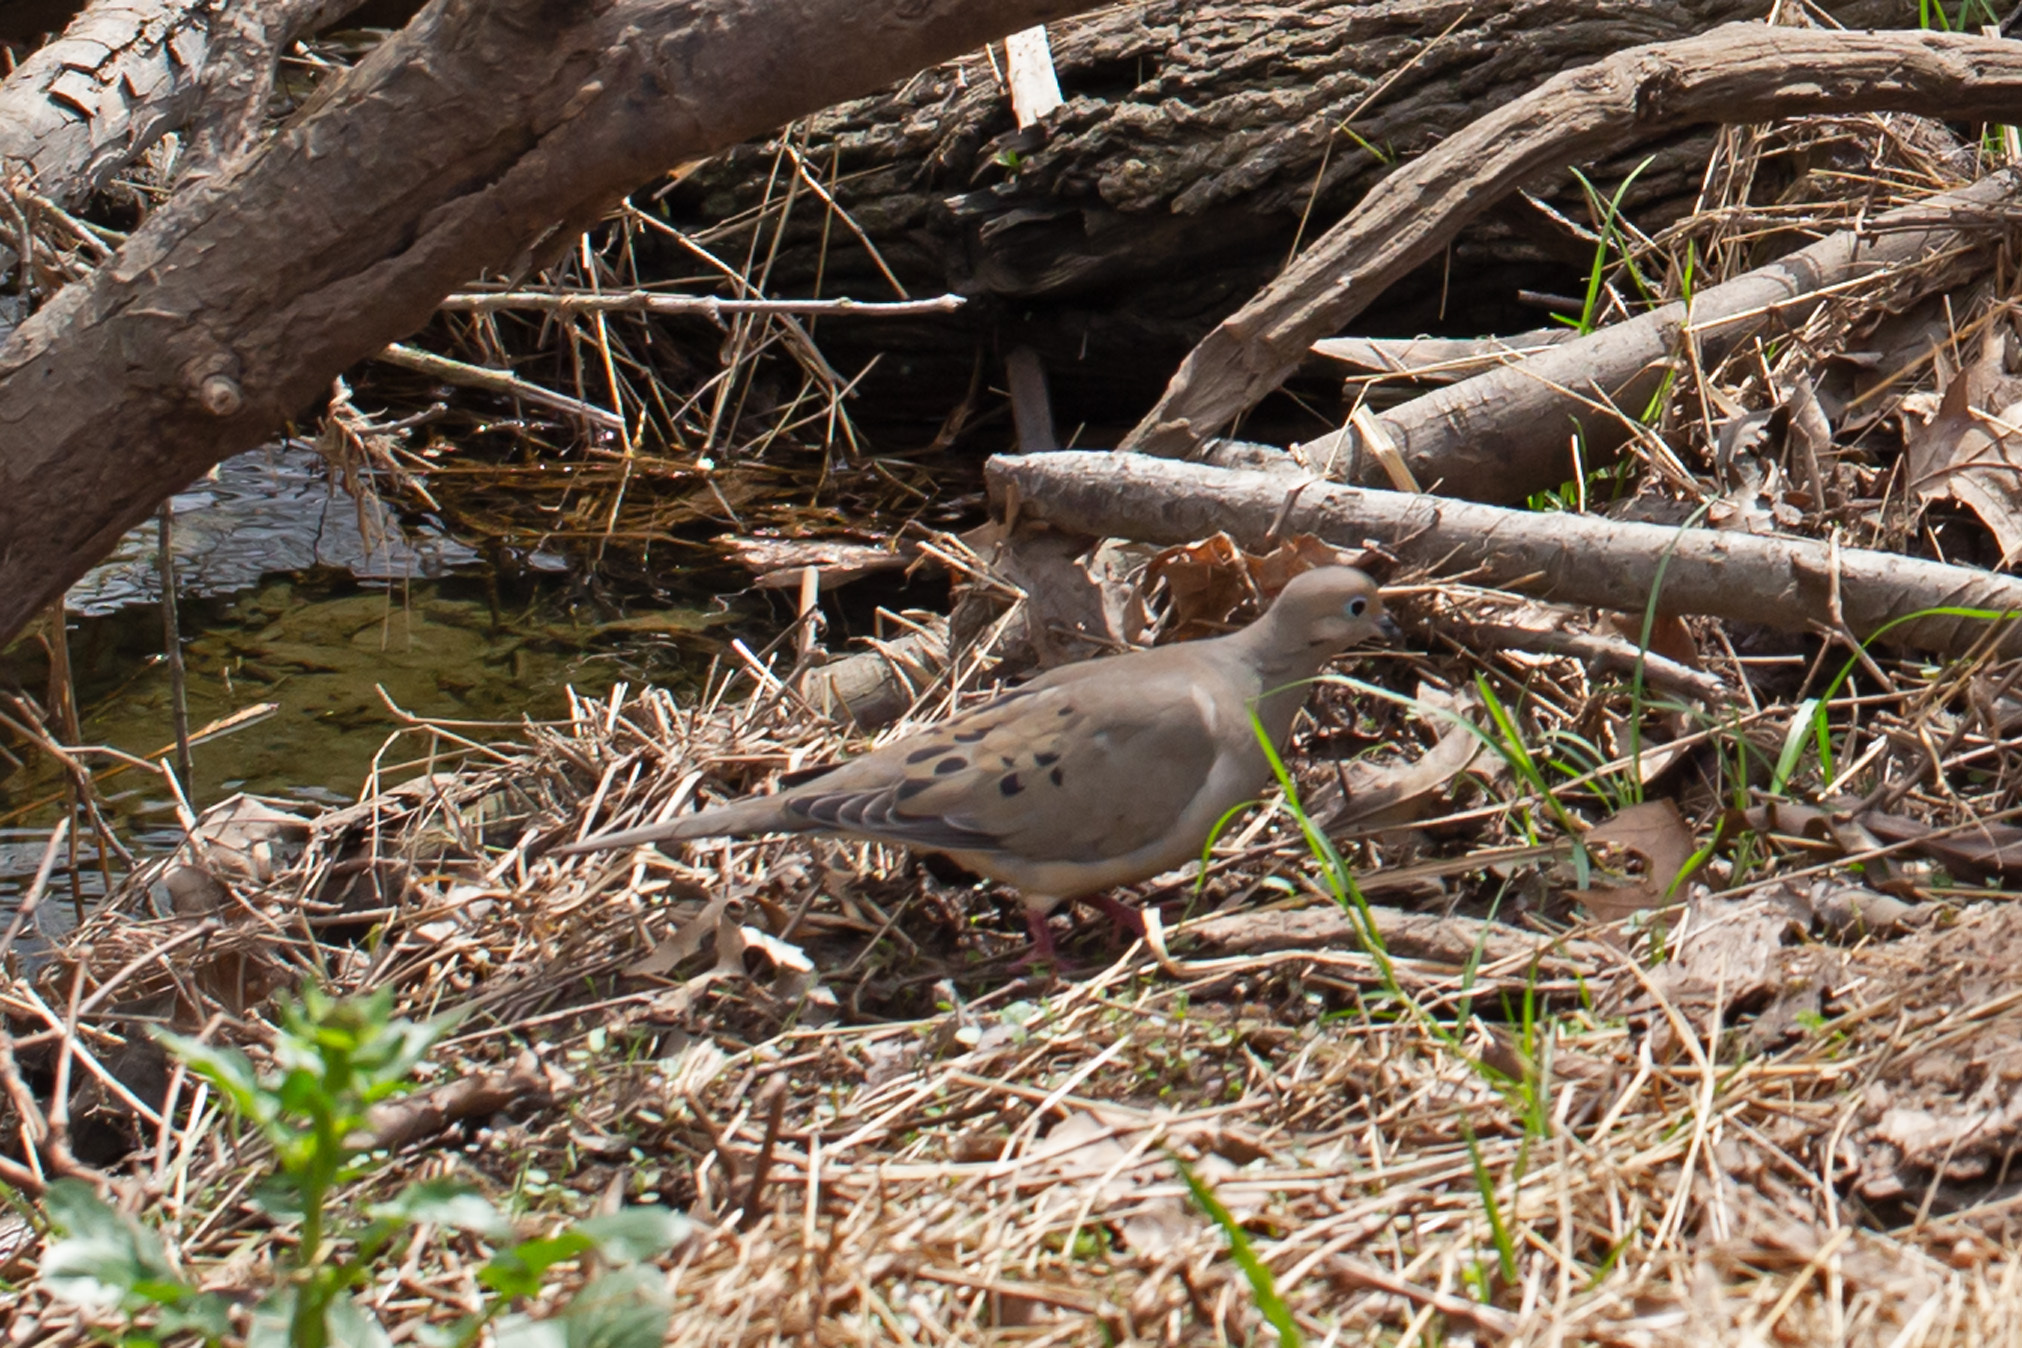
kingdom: Animalia
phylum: Chordata
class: Aves
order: Columbiformes
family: Columbidae
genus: Zenaida
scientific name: Zenaida macroura
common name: Mourning dove
